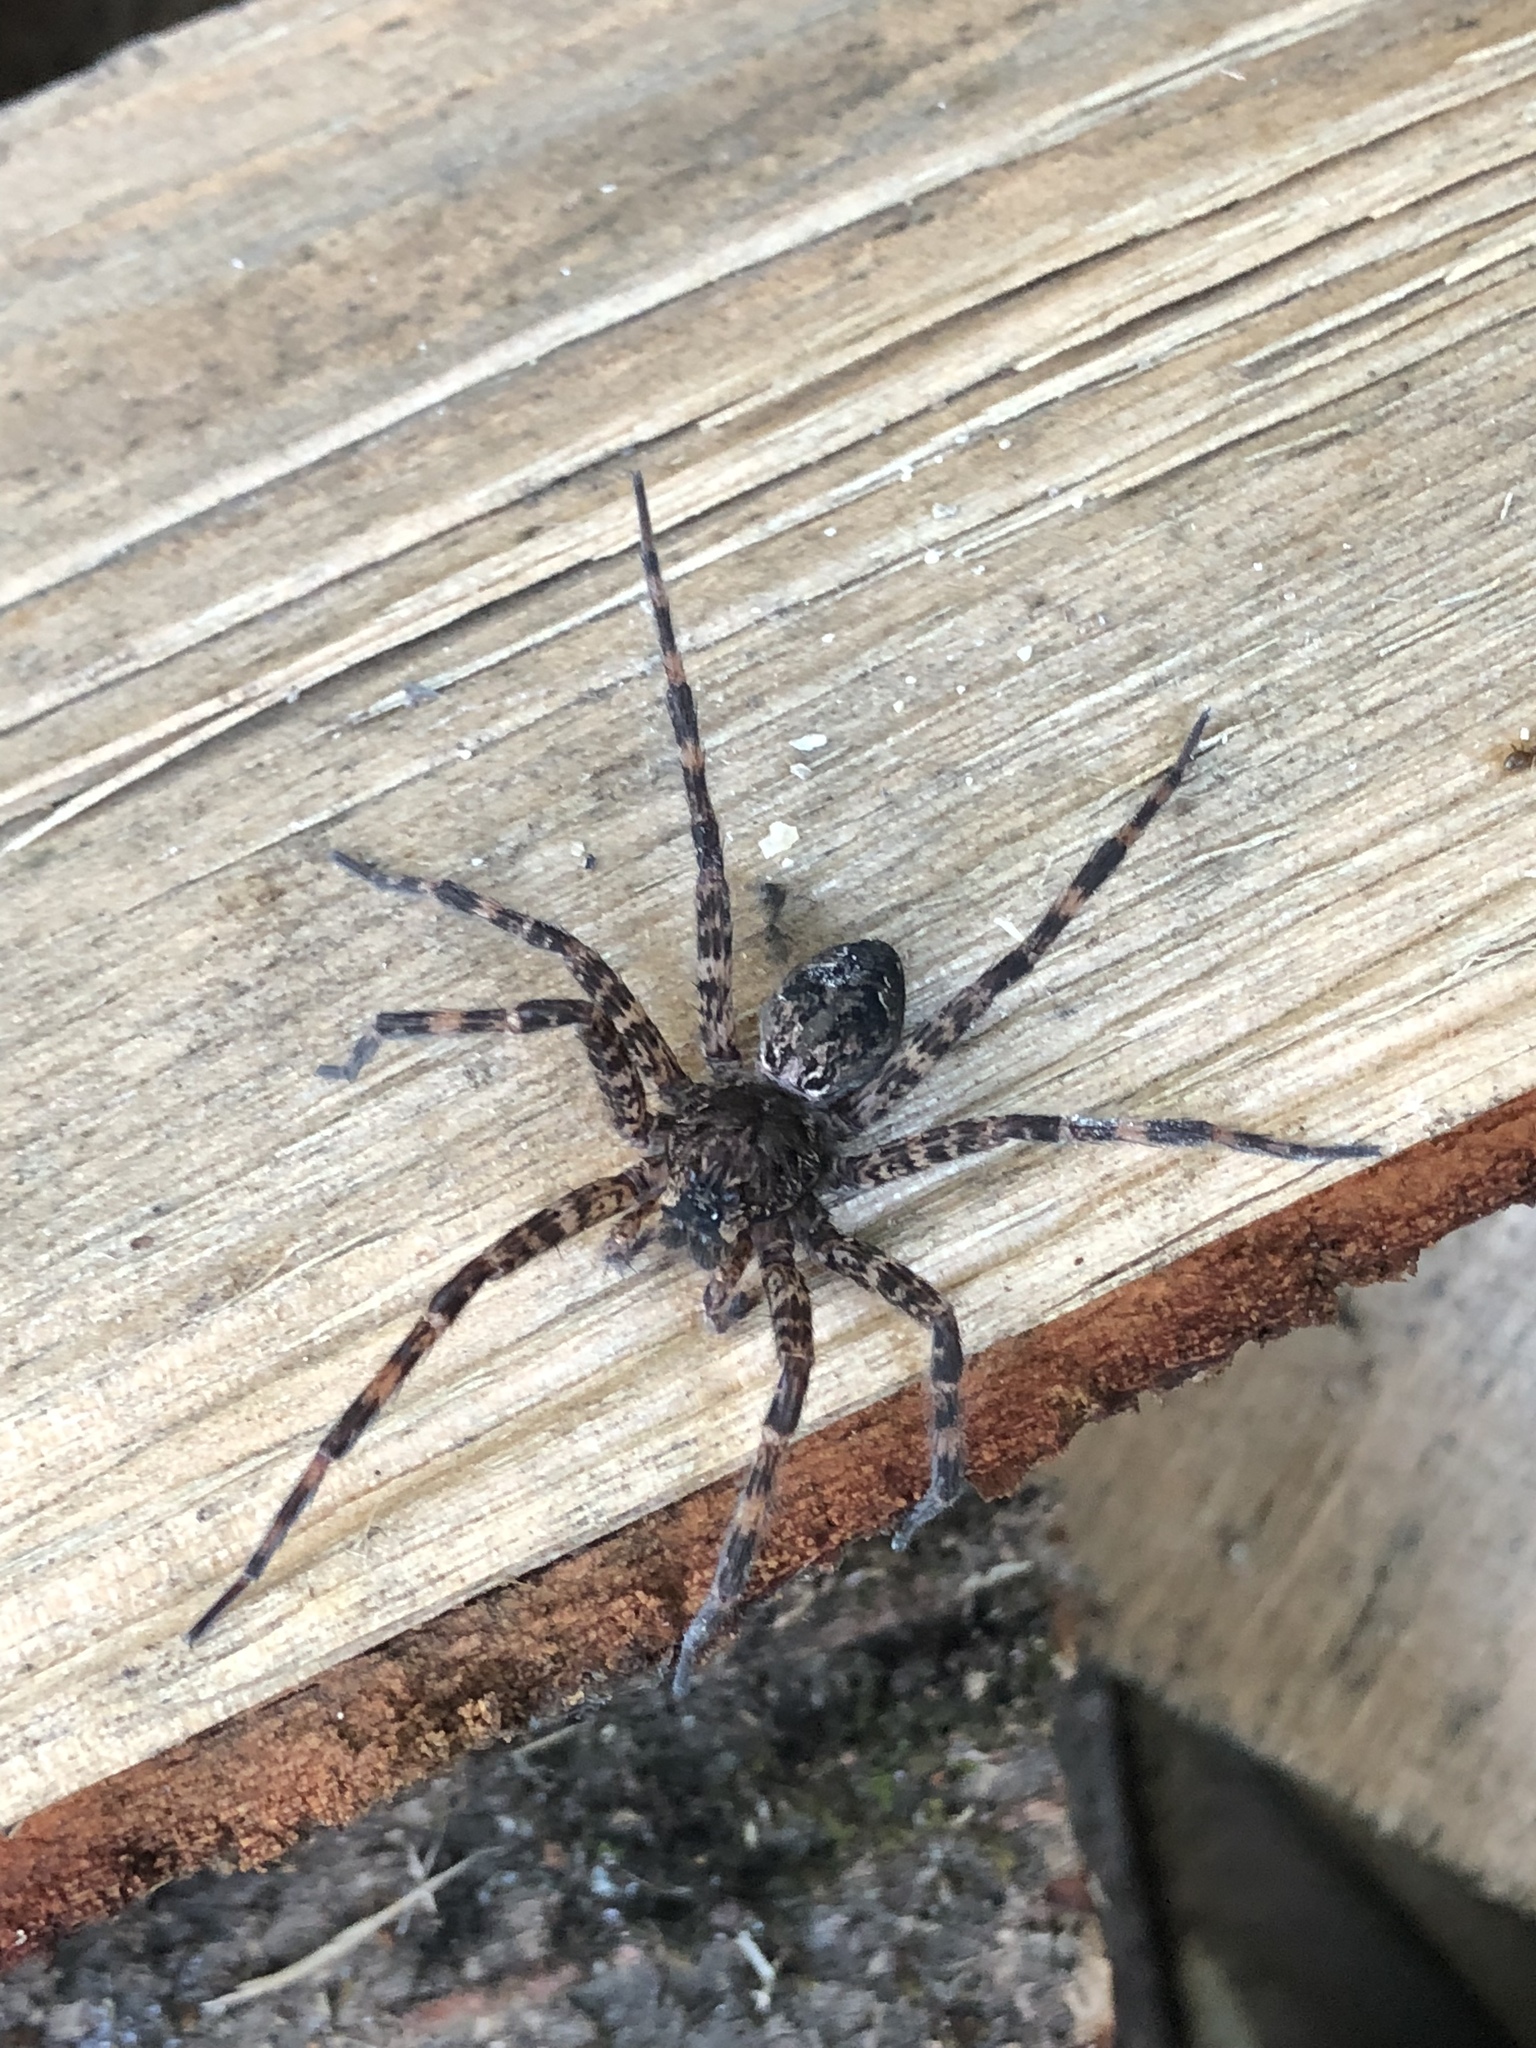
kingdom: Animalia
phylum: Arthropoda
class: Arachnida
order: Araneae
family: Pisauridae
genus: Dolomedes
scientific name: Dolomedes tenebrosus
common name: Dark fishing spider
